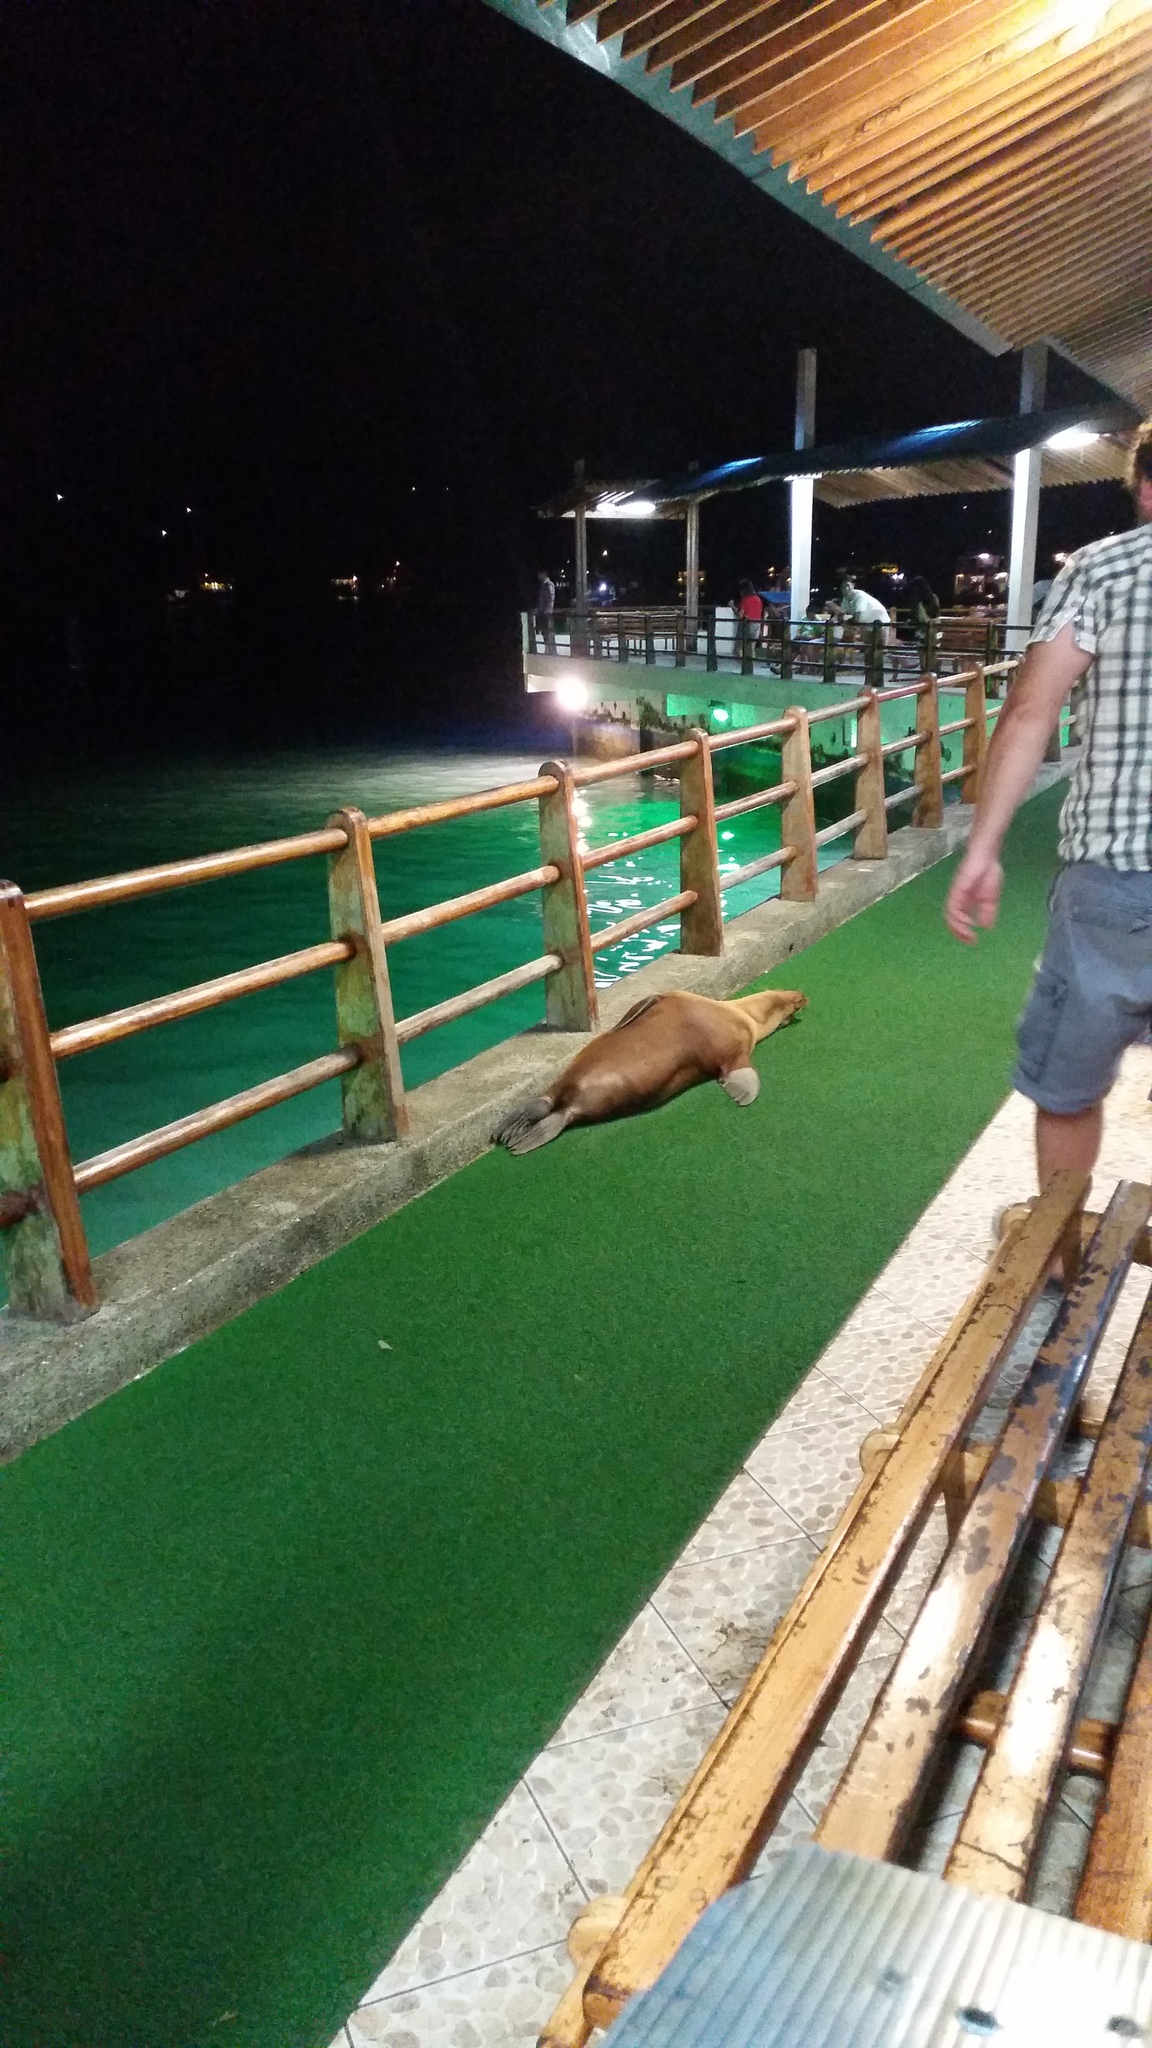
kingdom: Animalia
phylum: Chordata
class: Mammalia
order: Carnivora
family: Otariidae
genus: Zalophus
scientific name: Zalophus wollebaeki
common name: Galapagos sea lion
